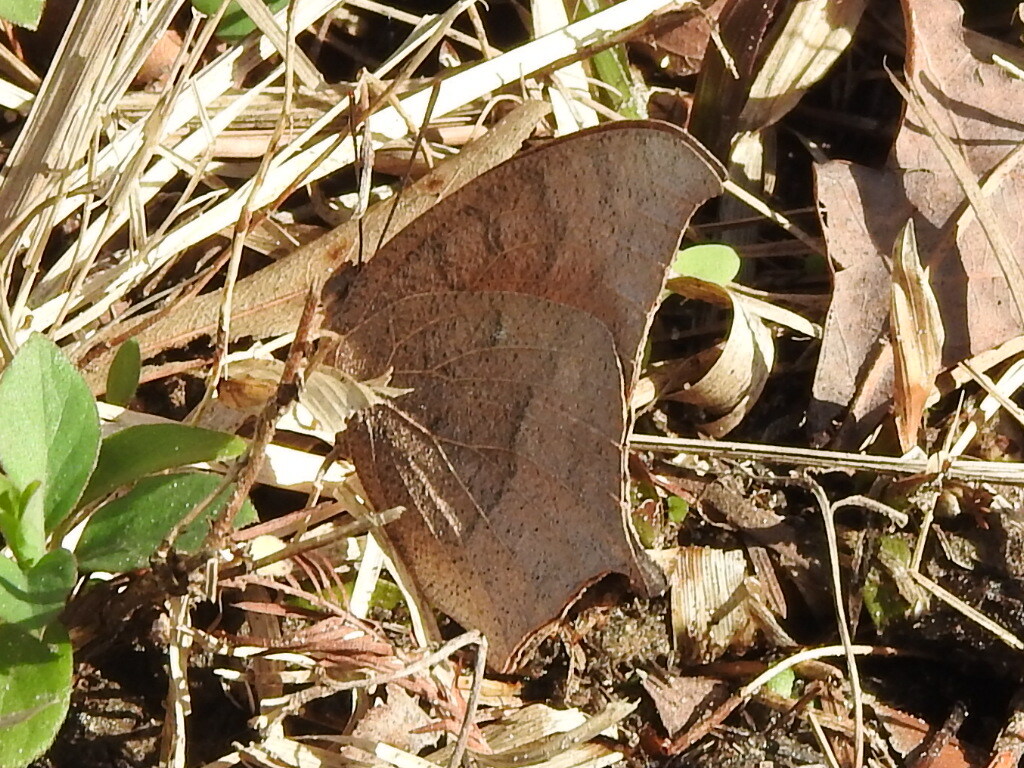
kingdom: Animalia
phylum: Arthropoda
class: Insecta
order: Lepidoptera
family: Nymphalidae
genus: Anaea
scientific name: Anaea andria
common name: Goatweed leafwing
